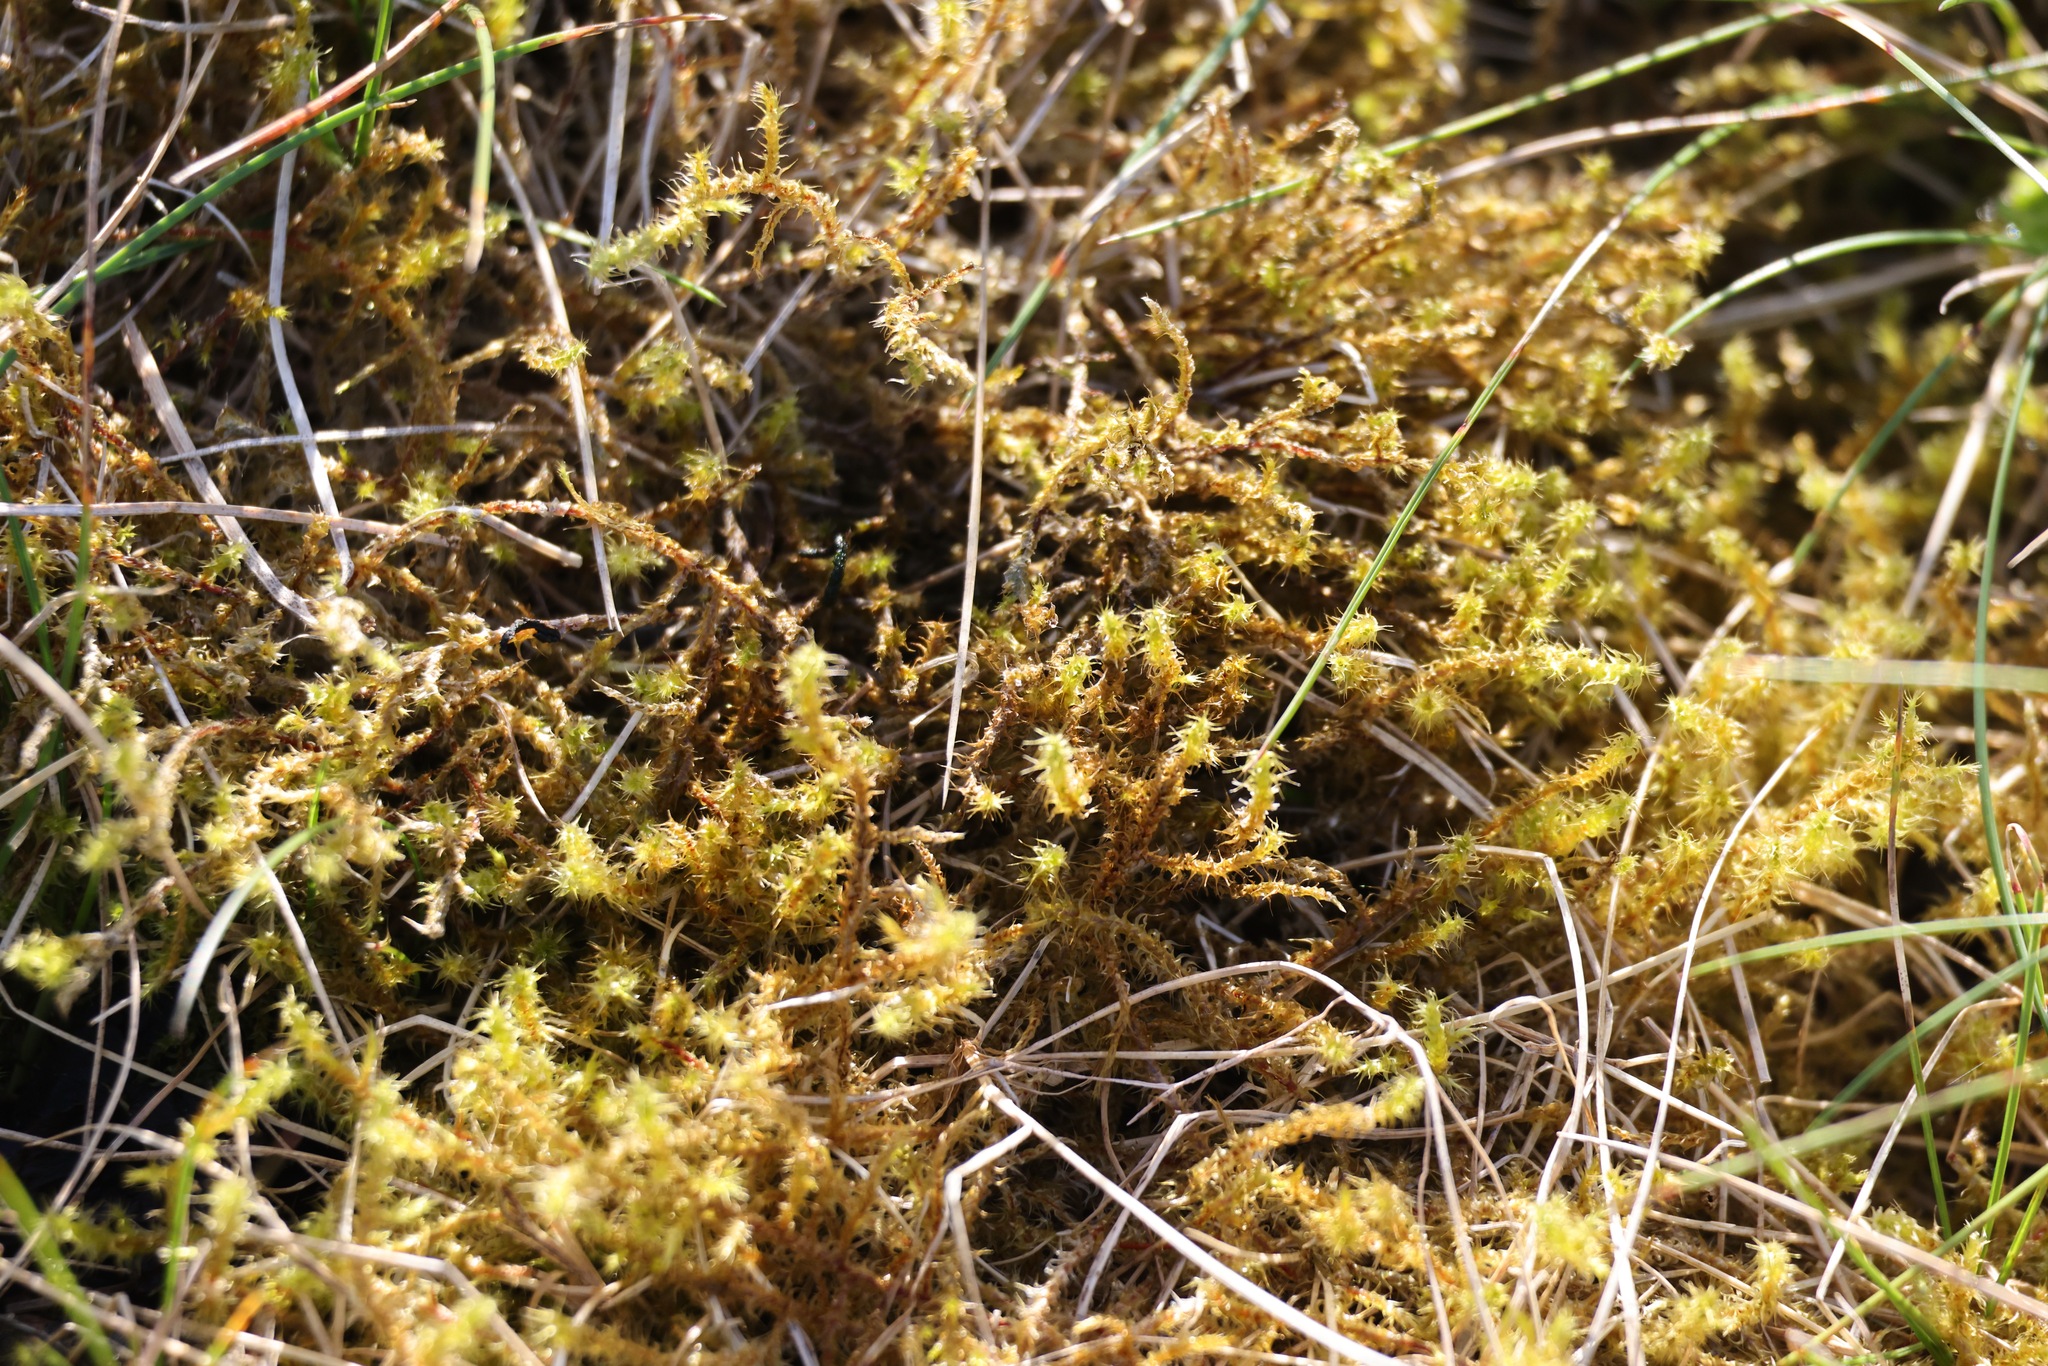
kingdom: Plantae
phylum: Bryophyta
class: Bryopsida
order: Hypnales
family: Hylocomiaceae
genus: Rhytidiadelphus
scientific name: Rhytidiadelphus squarrosus
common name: Springy turf-moss
